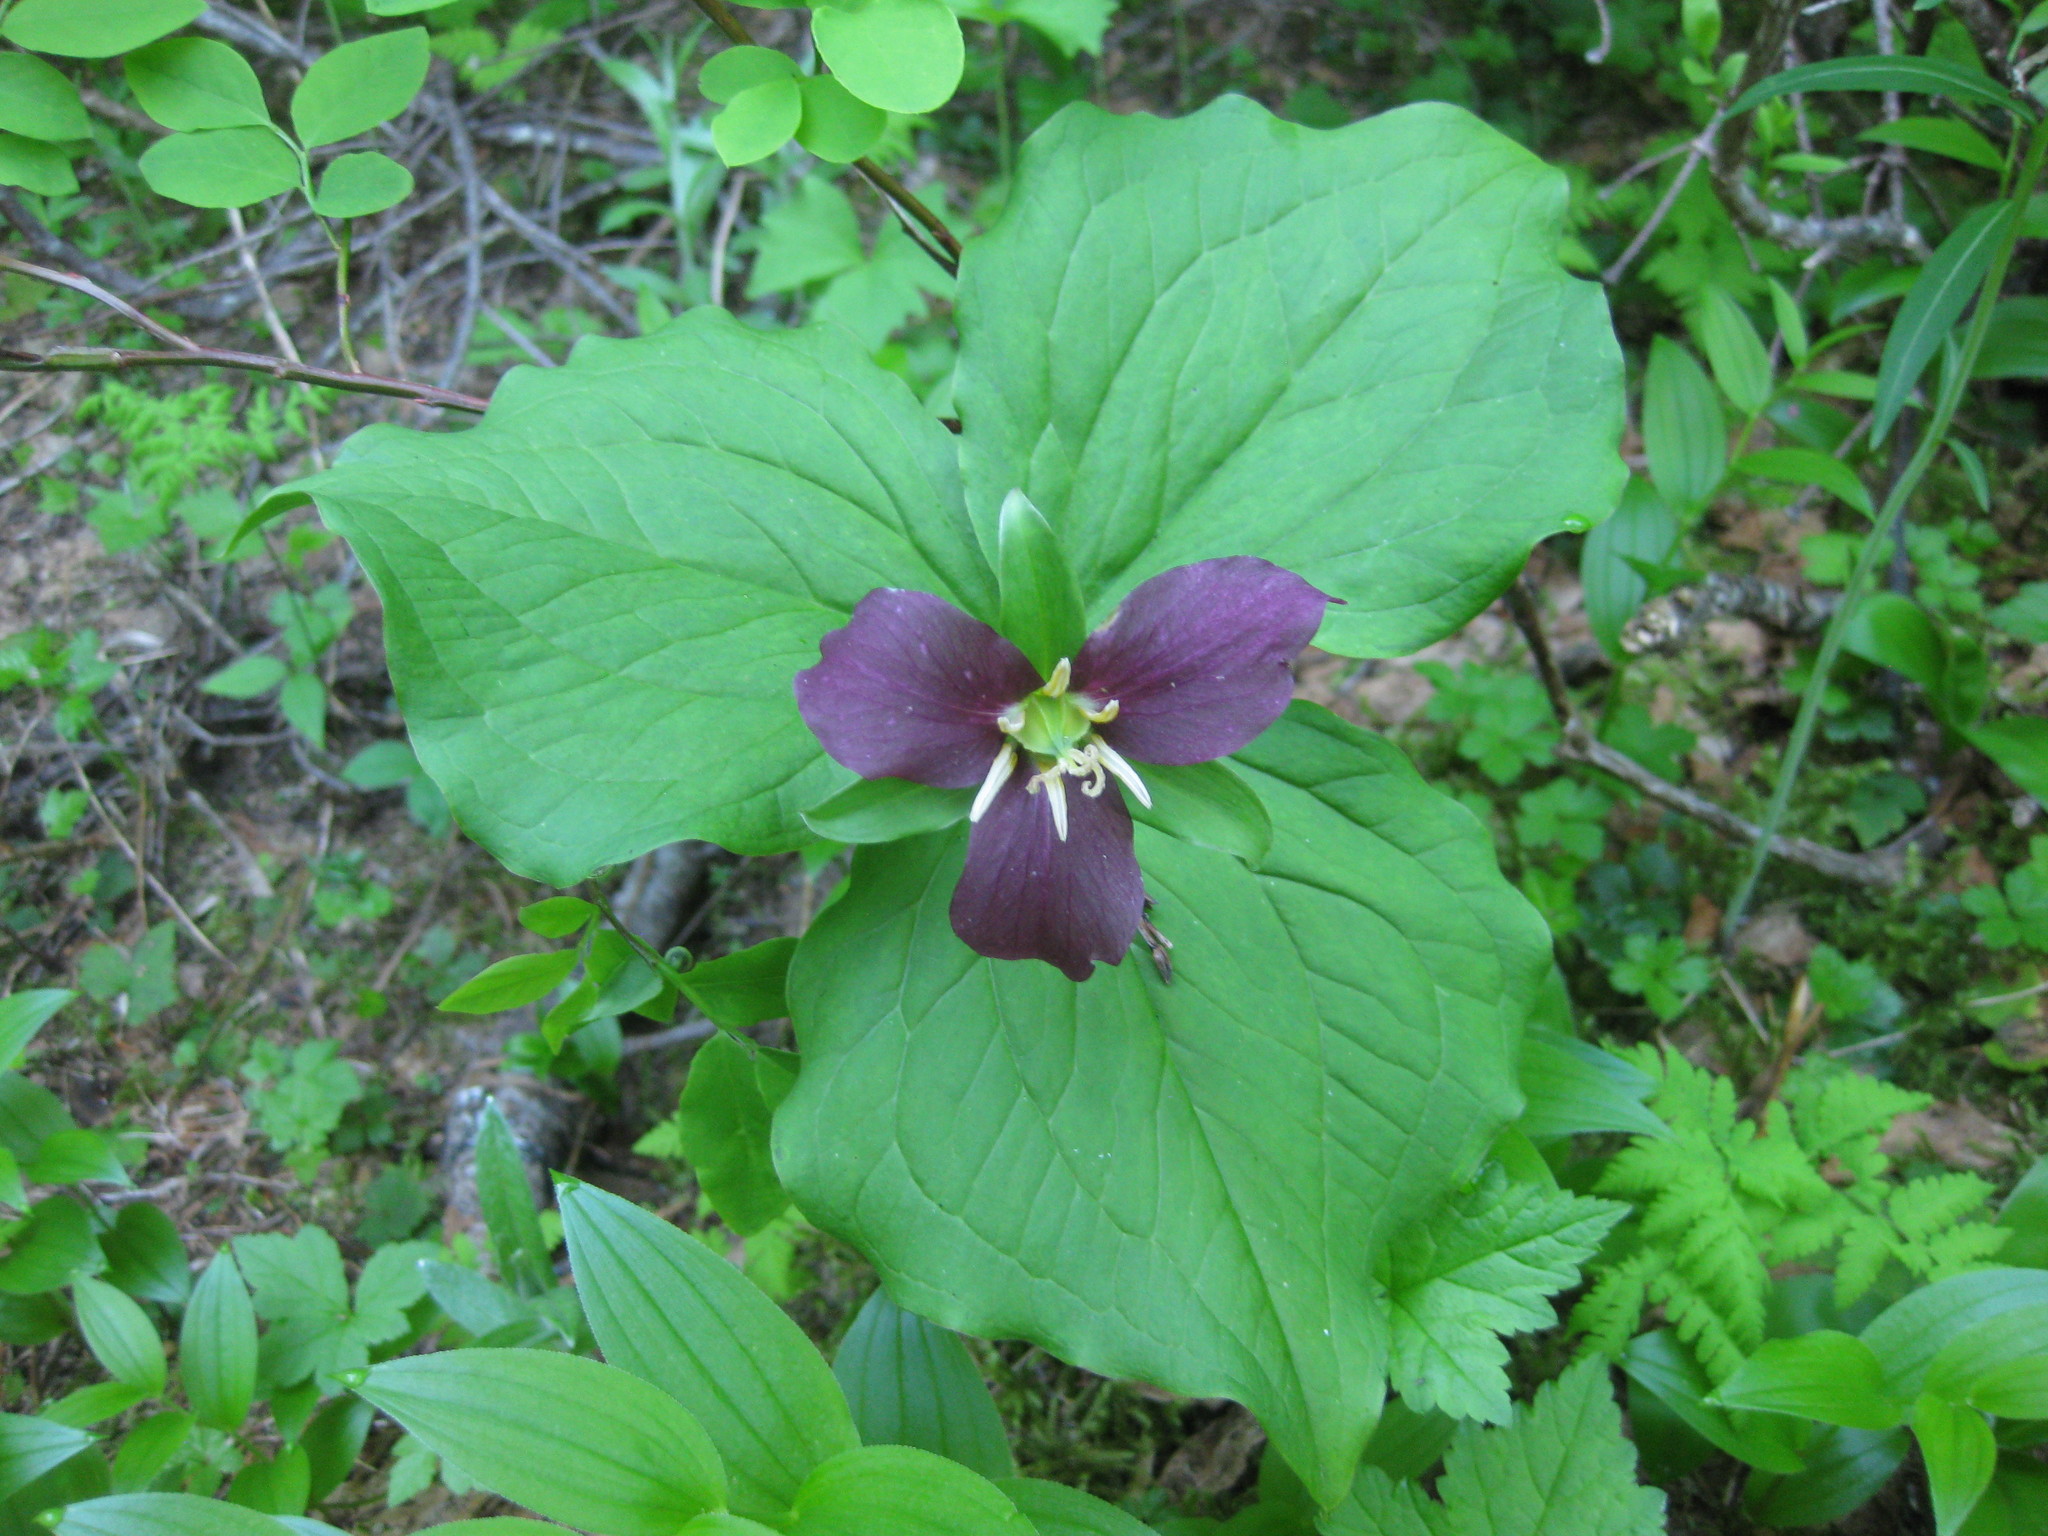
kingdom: Plantae
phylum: Tracheophyta
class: Liliopsida
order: Liliales
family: Melanthiaceae
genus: Trillium
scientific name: Trillium ovatum
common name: Pacific trillium
